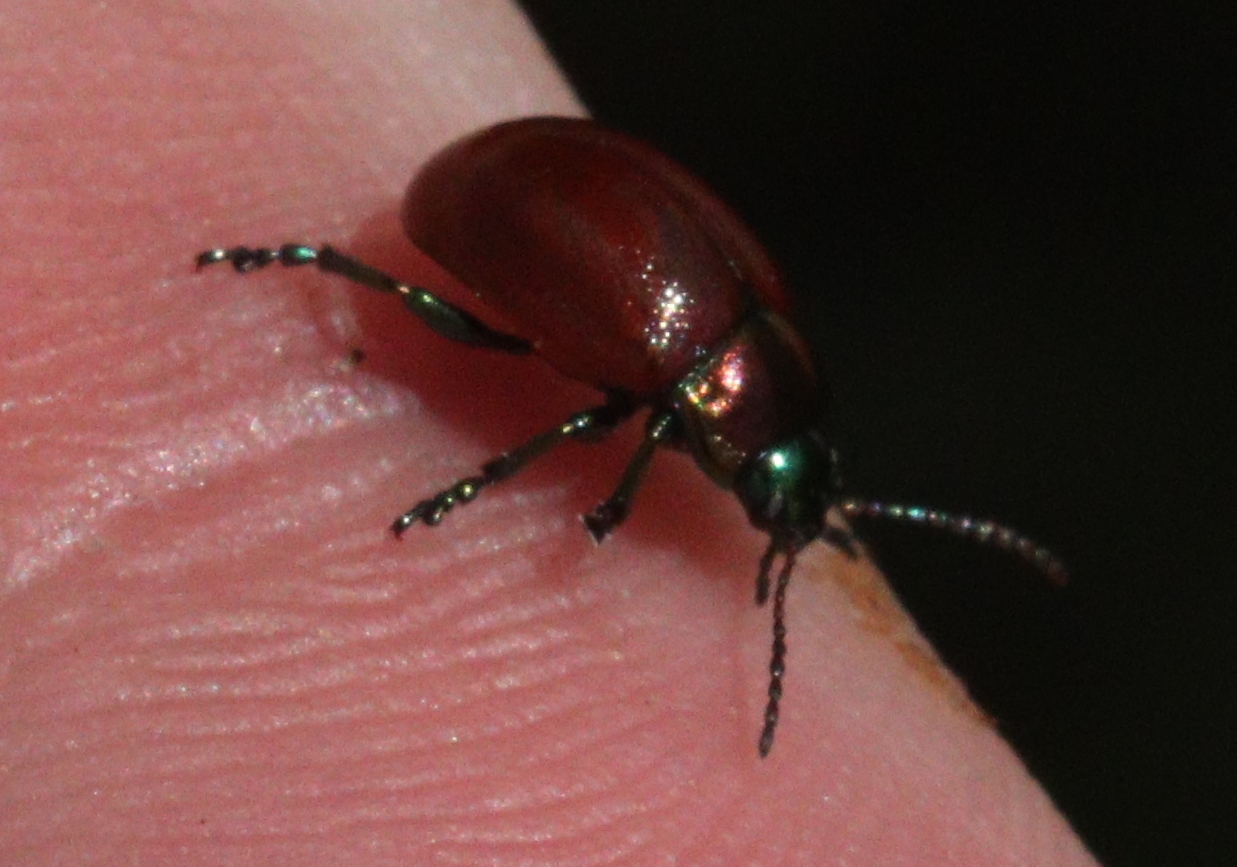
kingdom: Animalia
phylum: Arthropoda
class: Insecta
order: Coleoptera
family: Chrysomelidae
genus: Chrysomela
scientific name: Chrysomela polita
